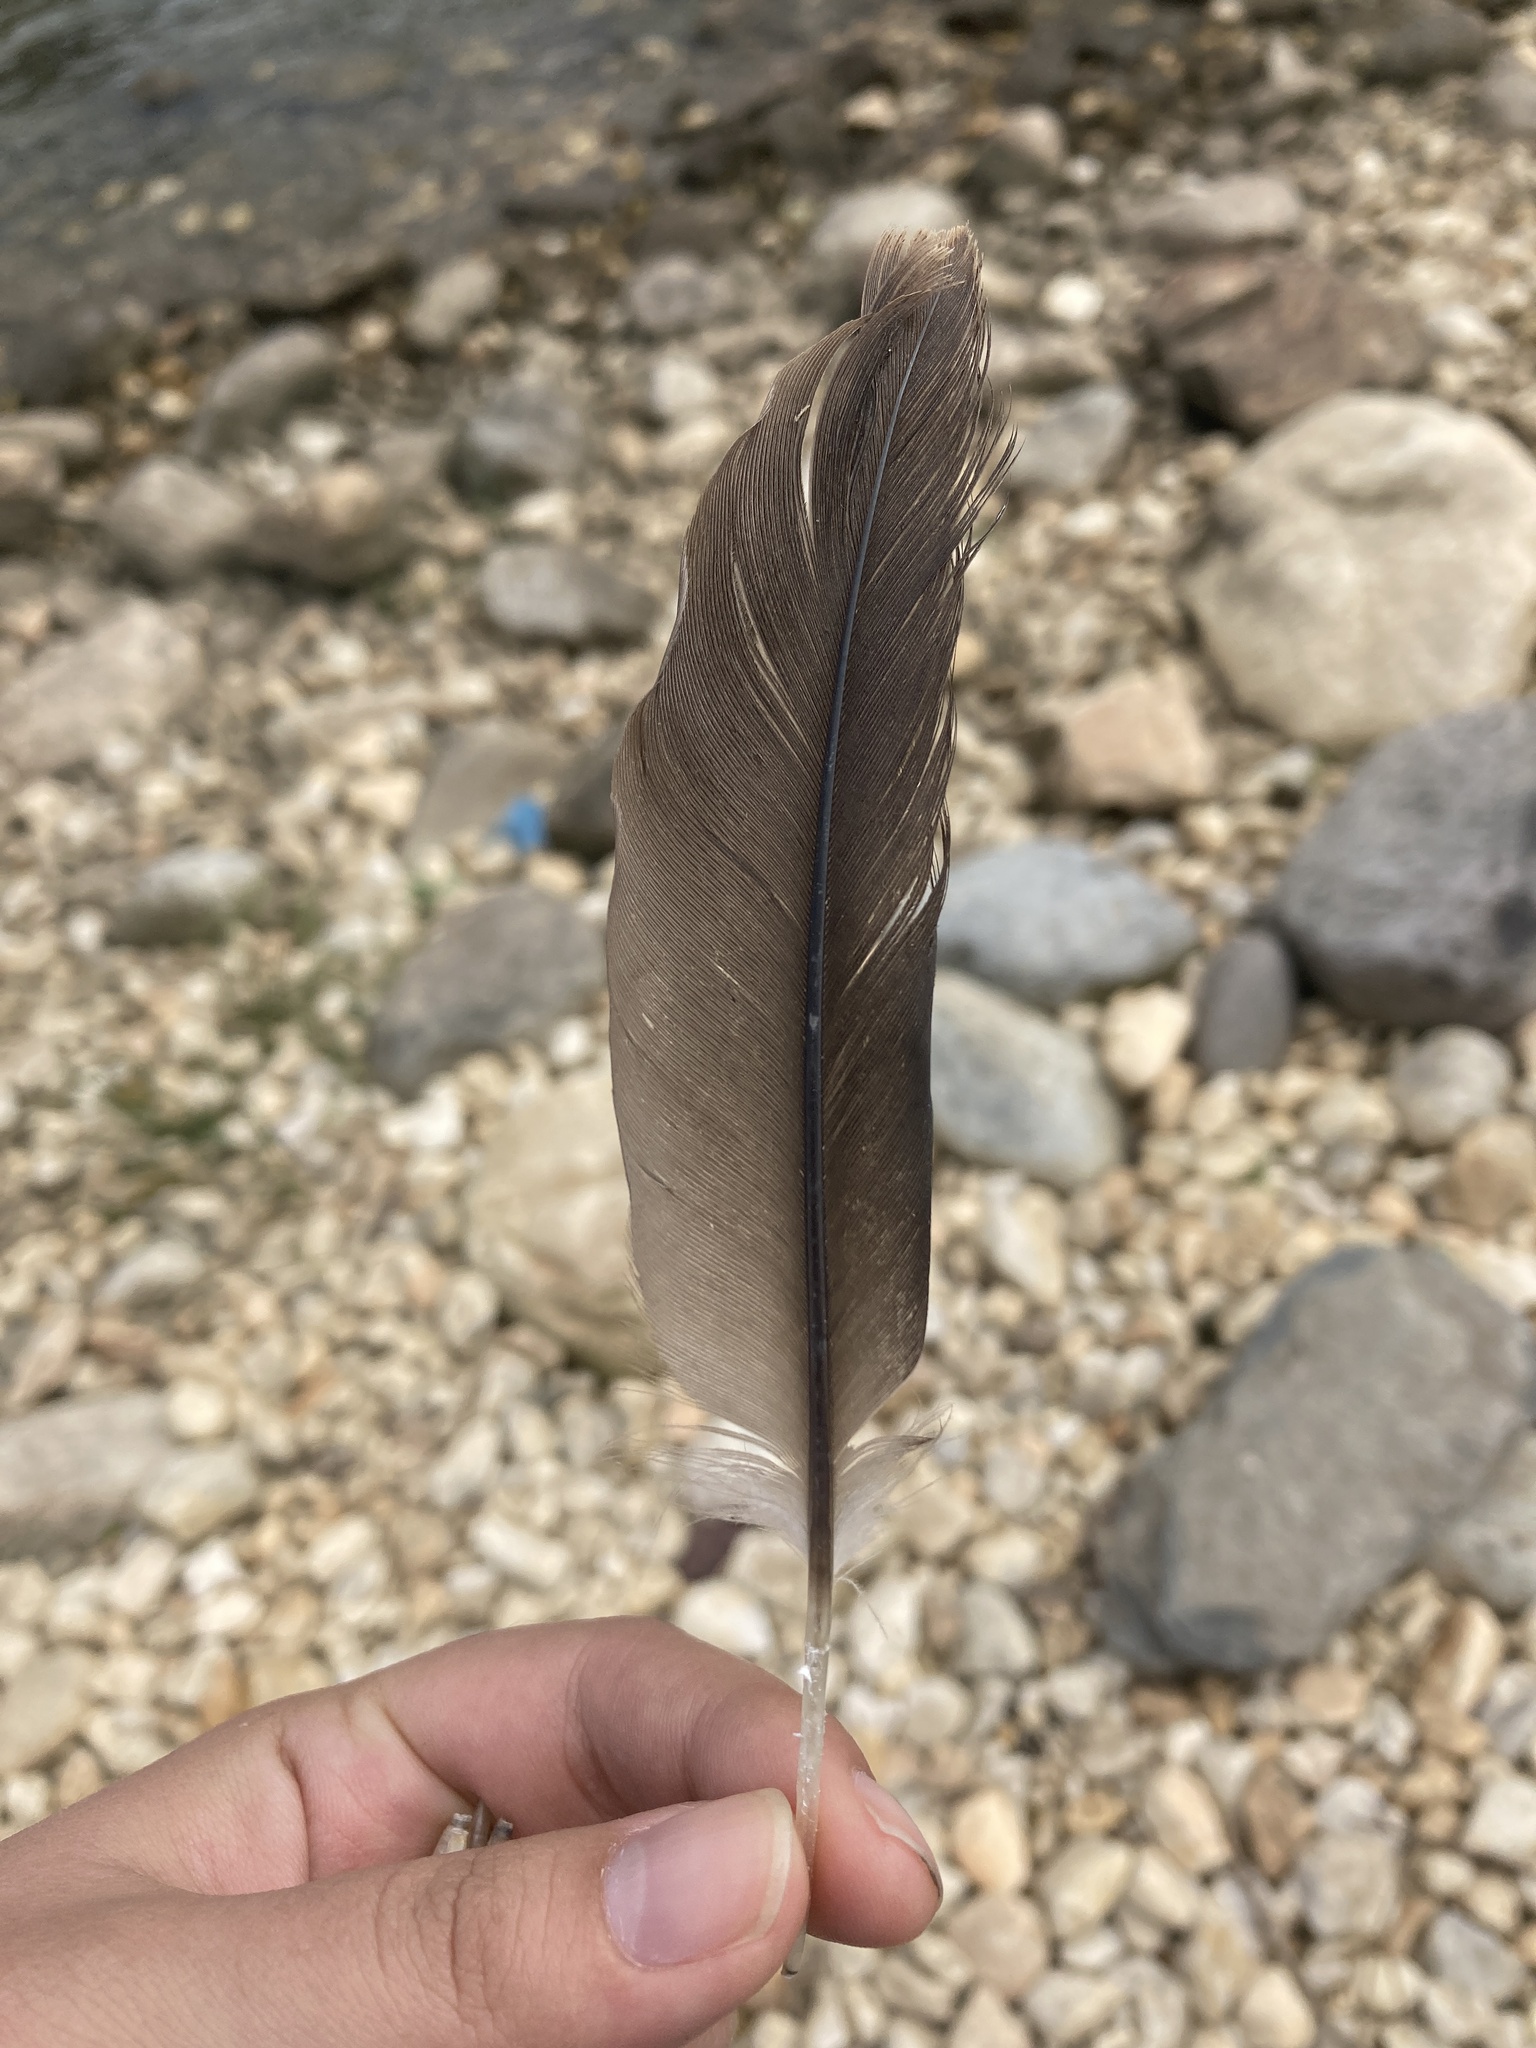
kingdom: Animalia
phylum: Chordata
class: Aves
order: Suliformes
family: Phalacrocoracidae
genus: Phalacrocorax
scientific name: Phalacrocorax auritus
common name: Double-crested cormorant
